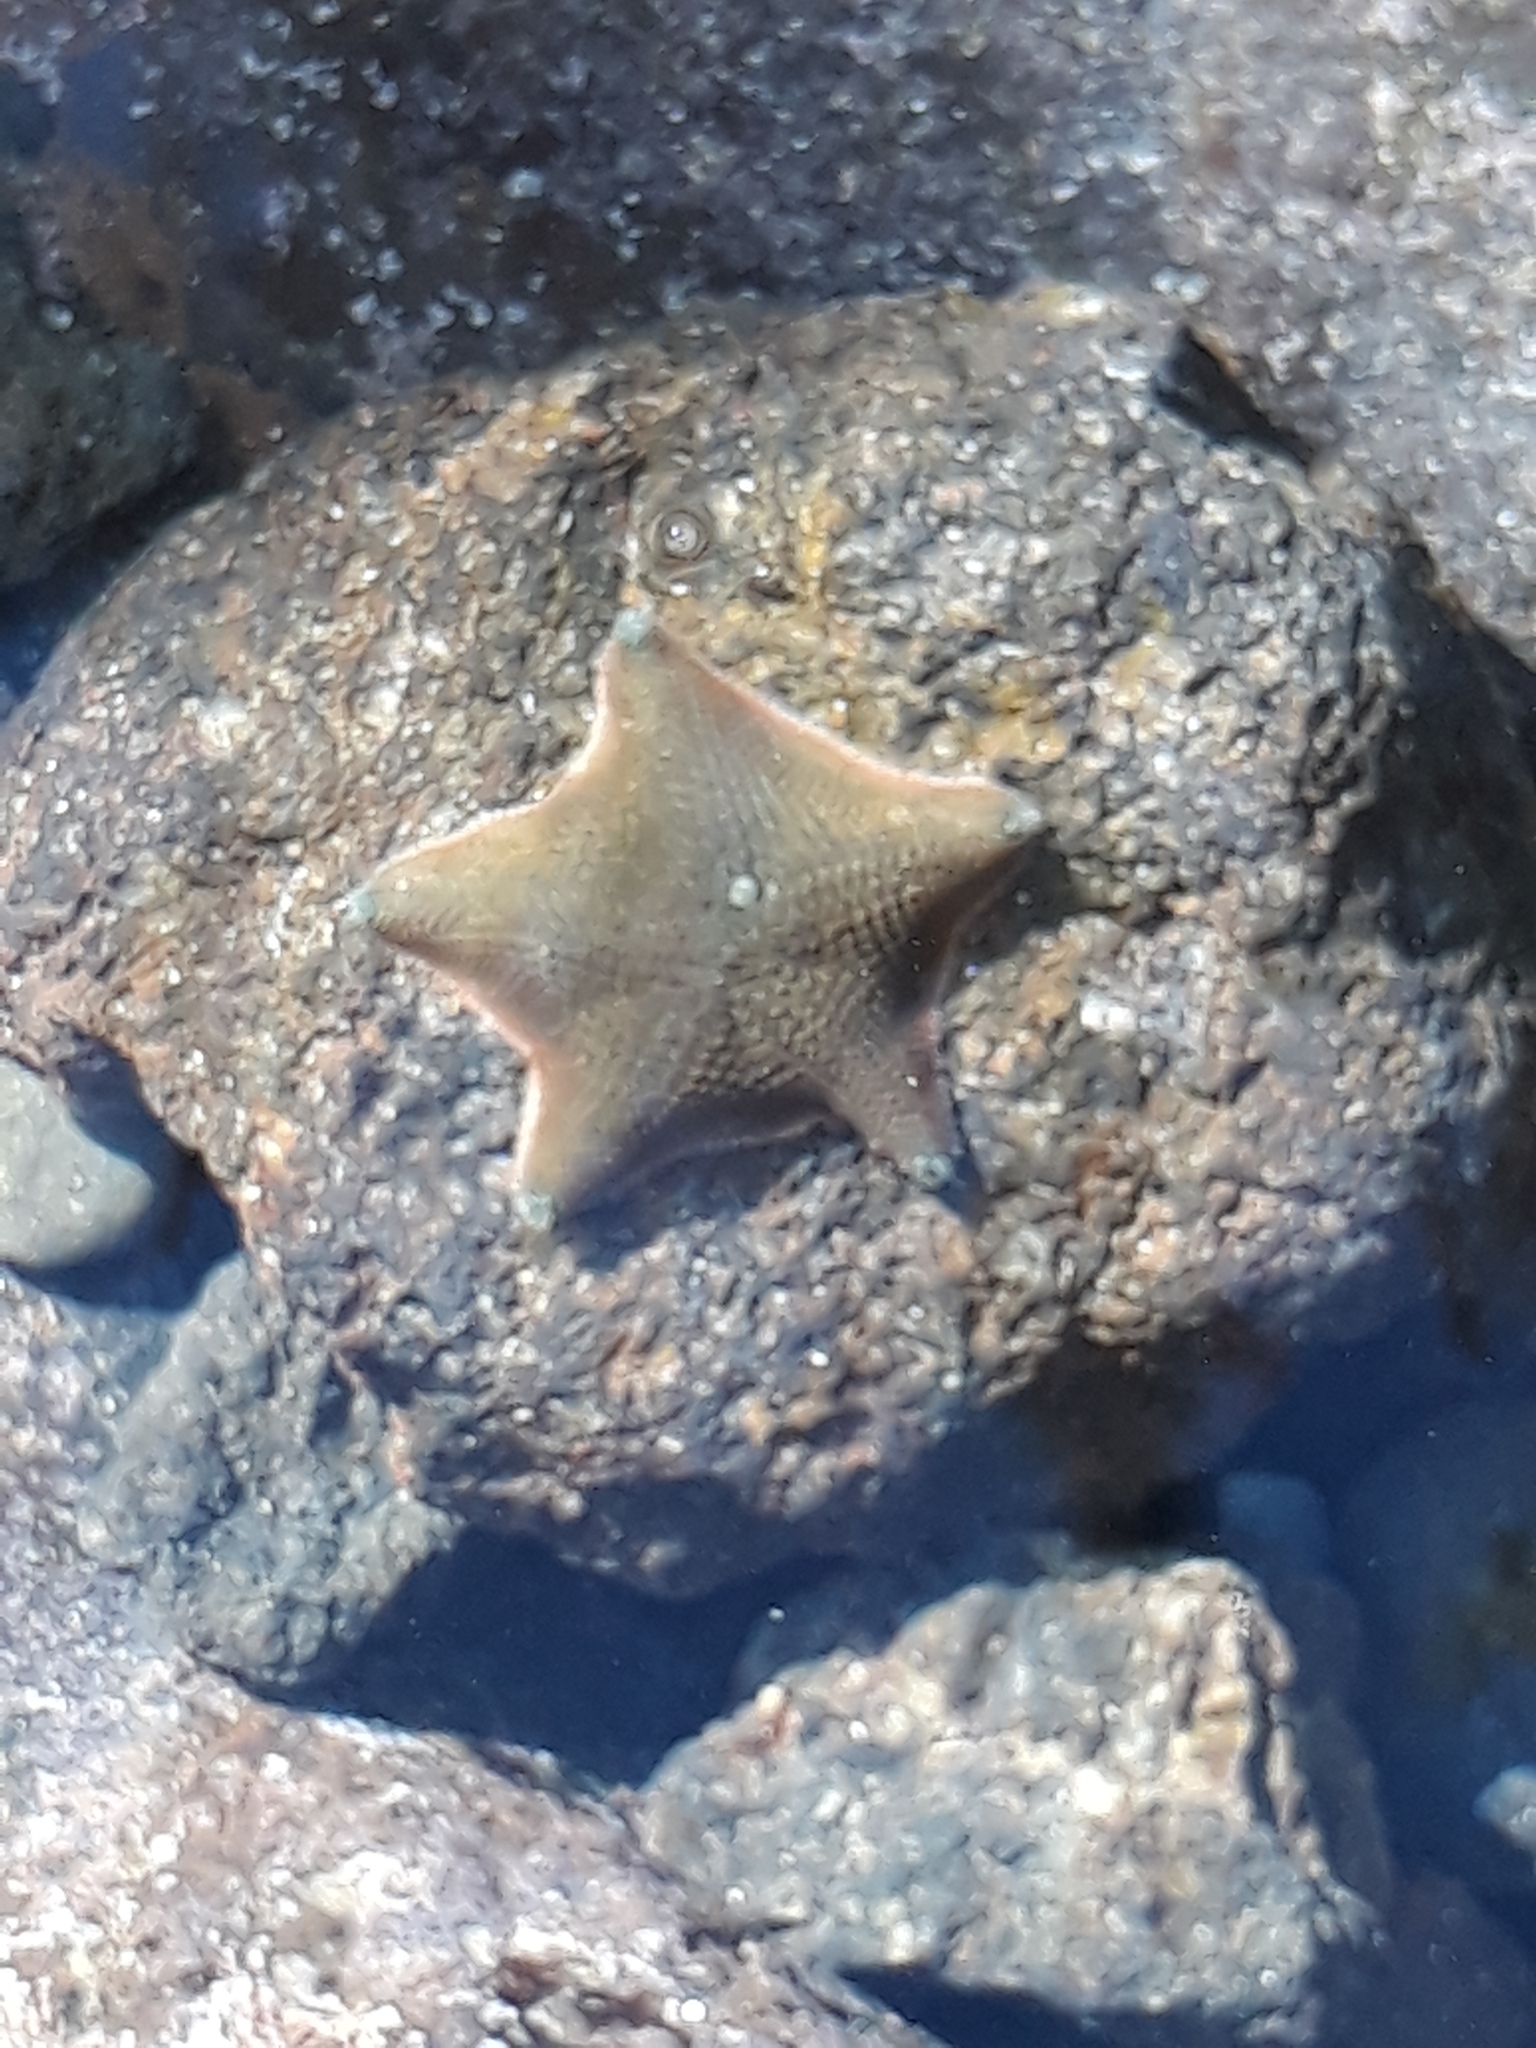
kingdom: Animalia
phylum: Echinodermata
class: Asteroidea
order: Valvatida
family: Asterinidae
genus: Patiriella
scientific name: Patiriella regularis
